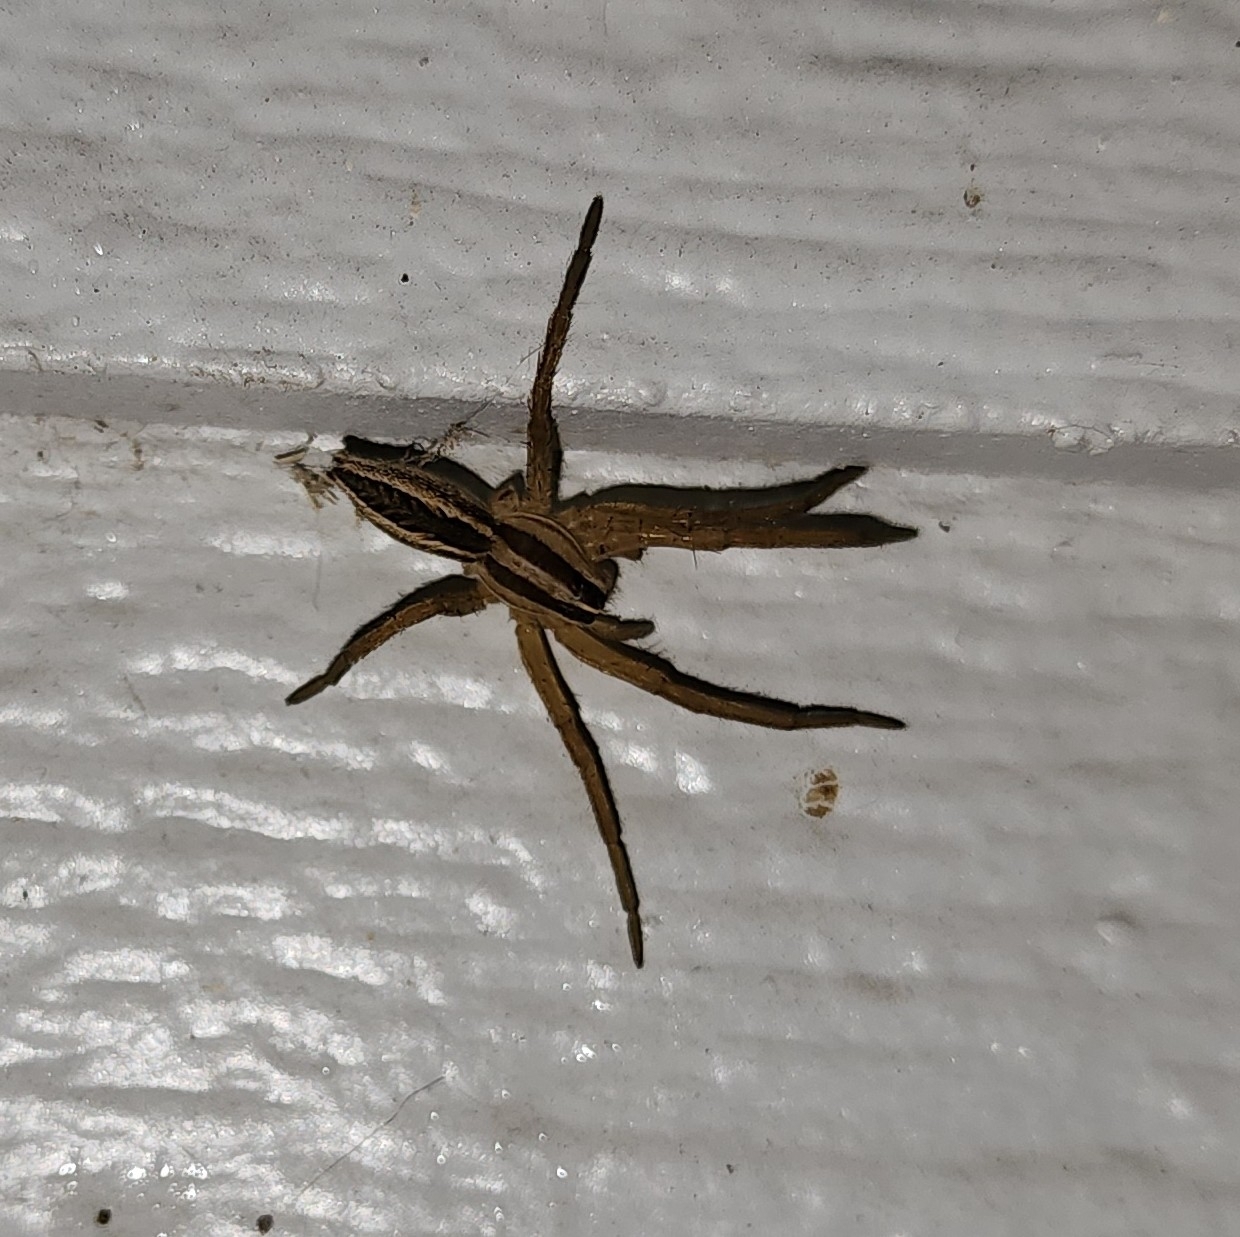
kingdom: Animalia
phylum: Arthropoda
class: Arachnida
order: Araneae
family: Lycosidae
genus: Rabidosa
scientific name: Rabidosa rabida
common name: Rabid wolf spider
